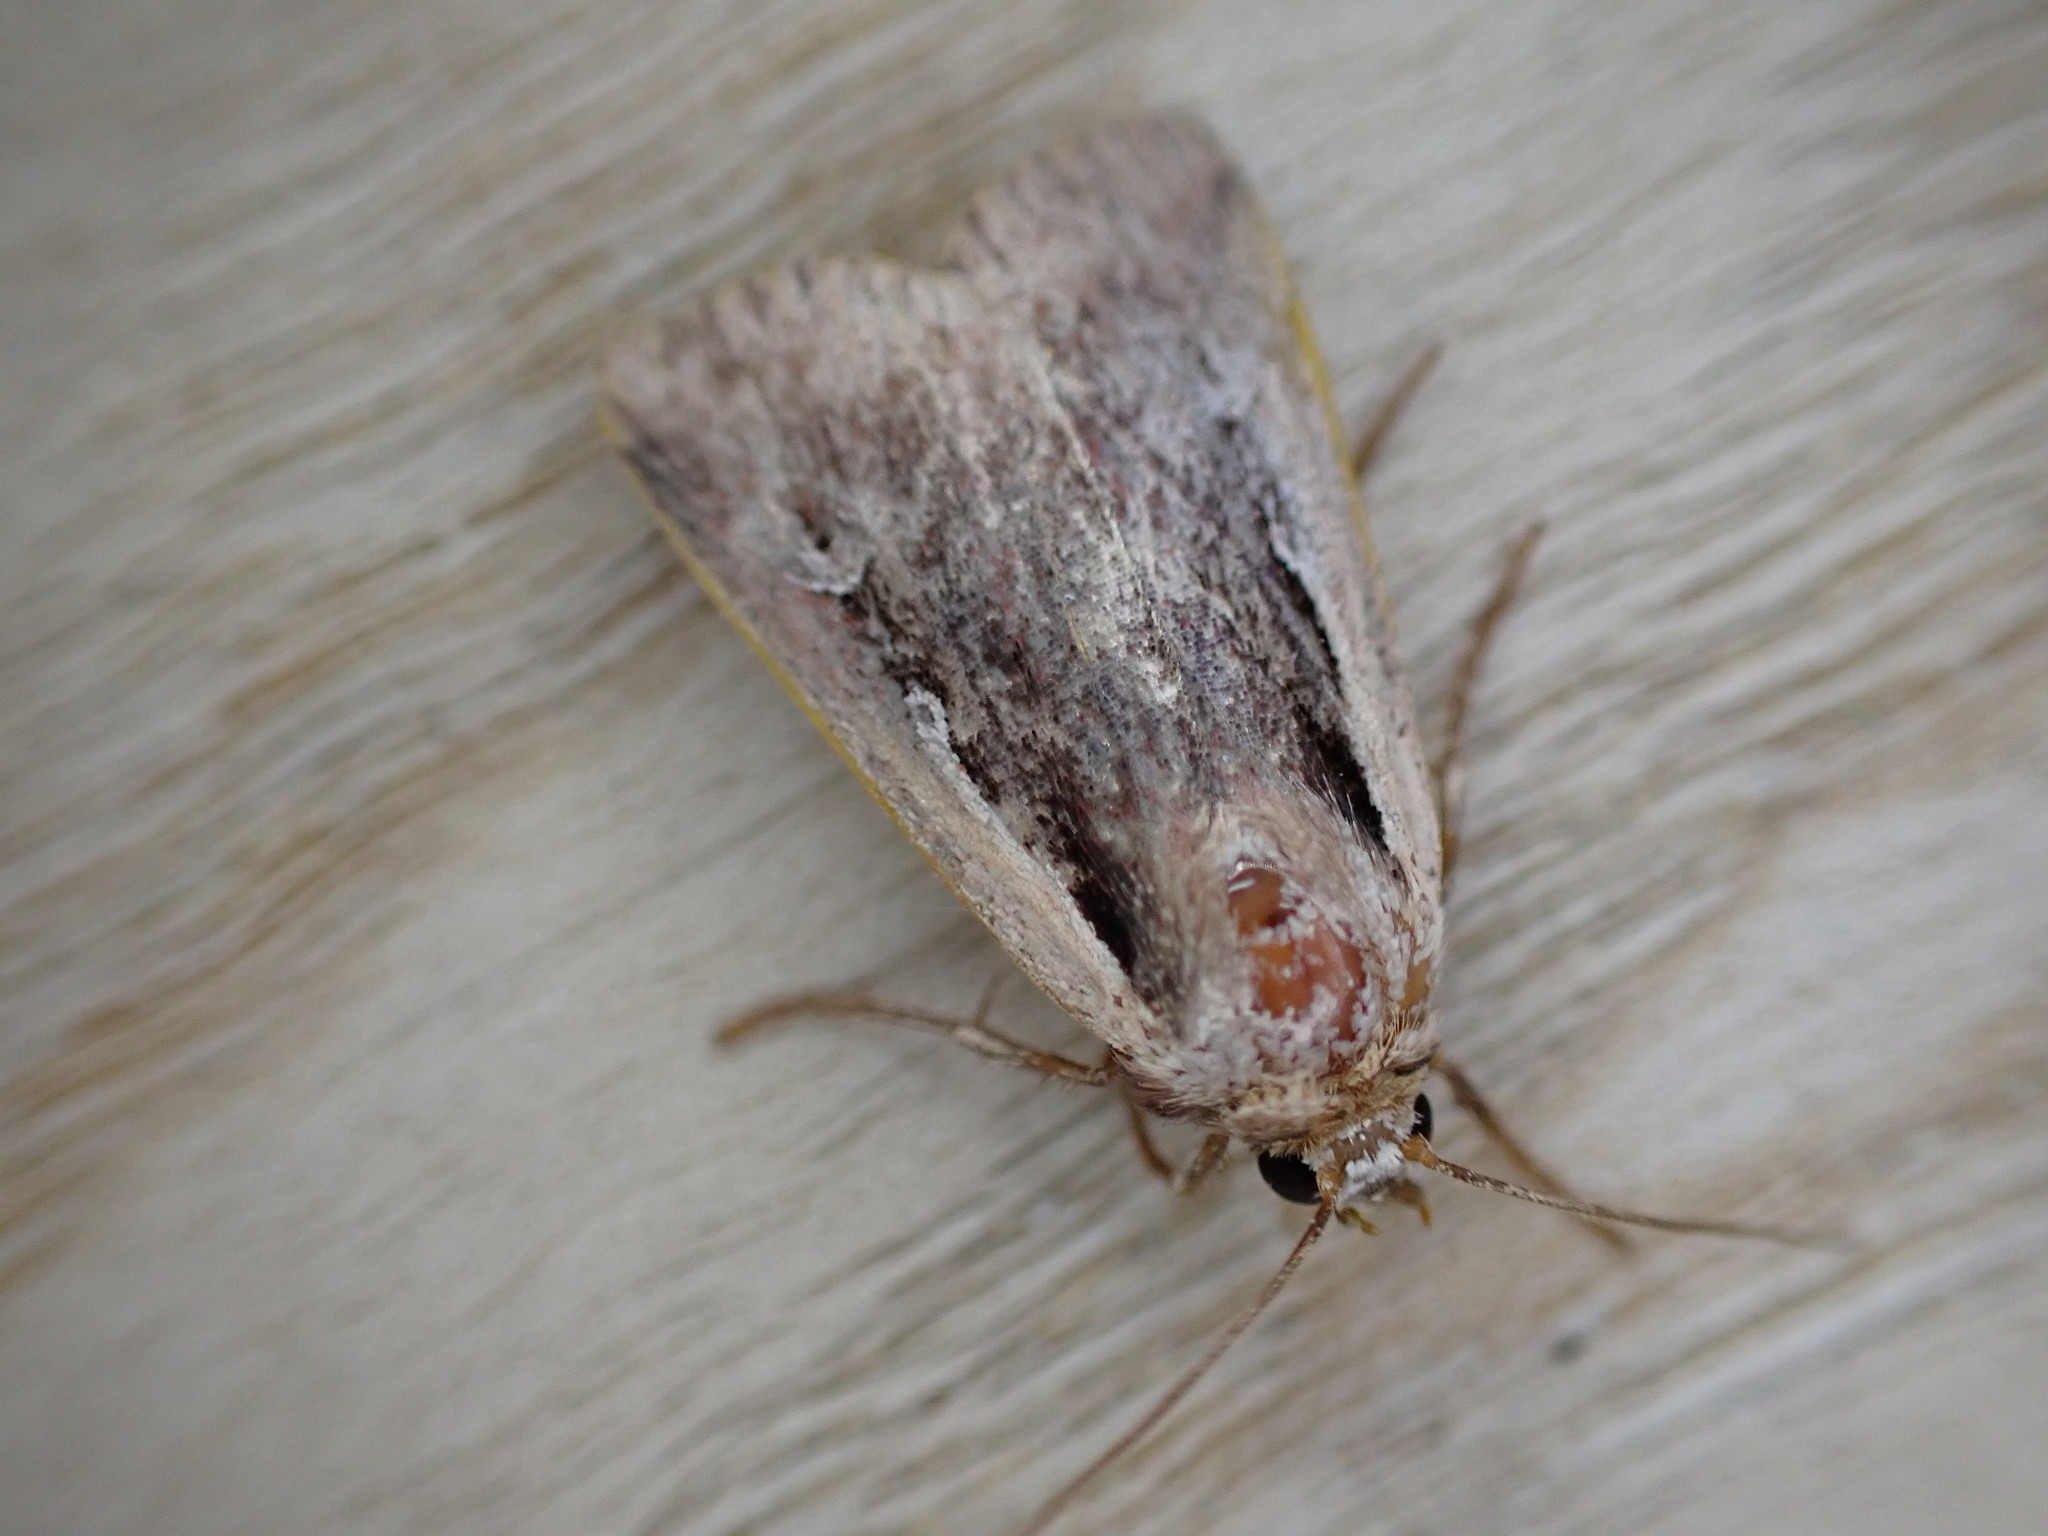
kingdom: Animalia
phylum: Arthropoda
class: Insecta
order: Lepidoptera
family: Noctuidae
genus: Ochropleura
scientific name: Ochropleura plecta
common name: Flame shoulder
